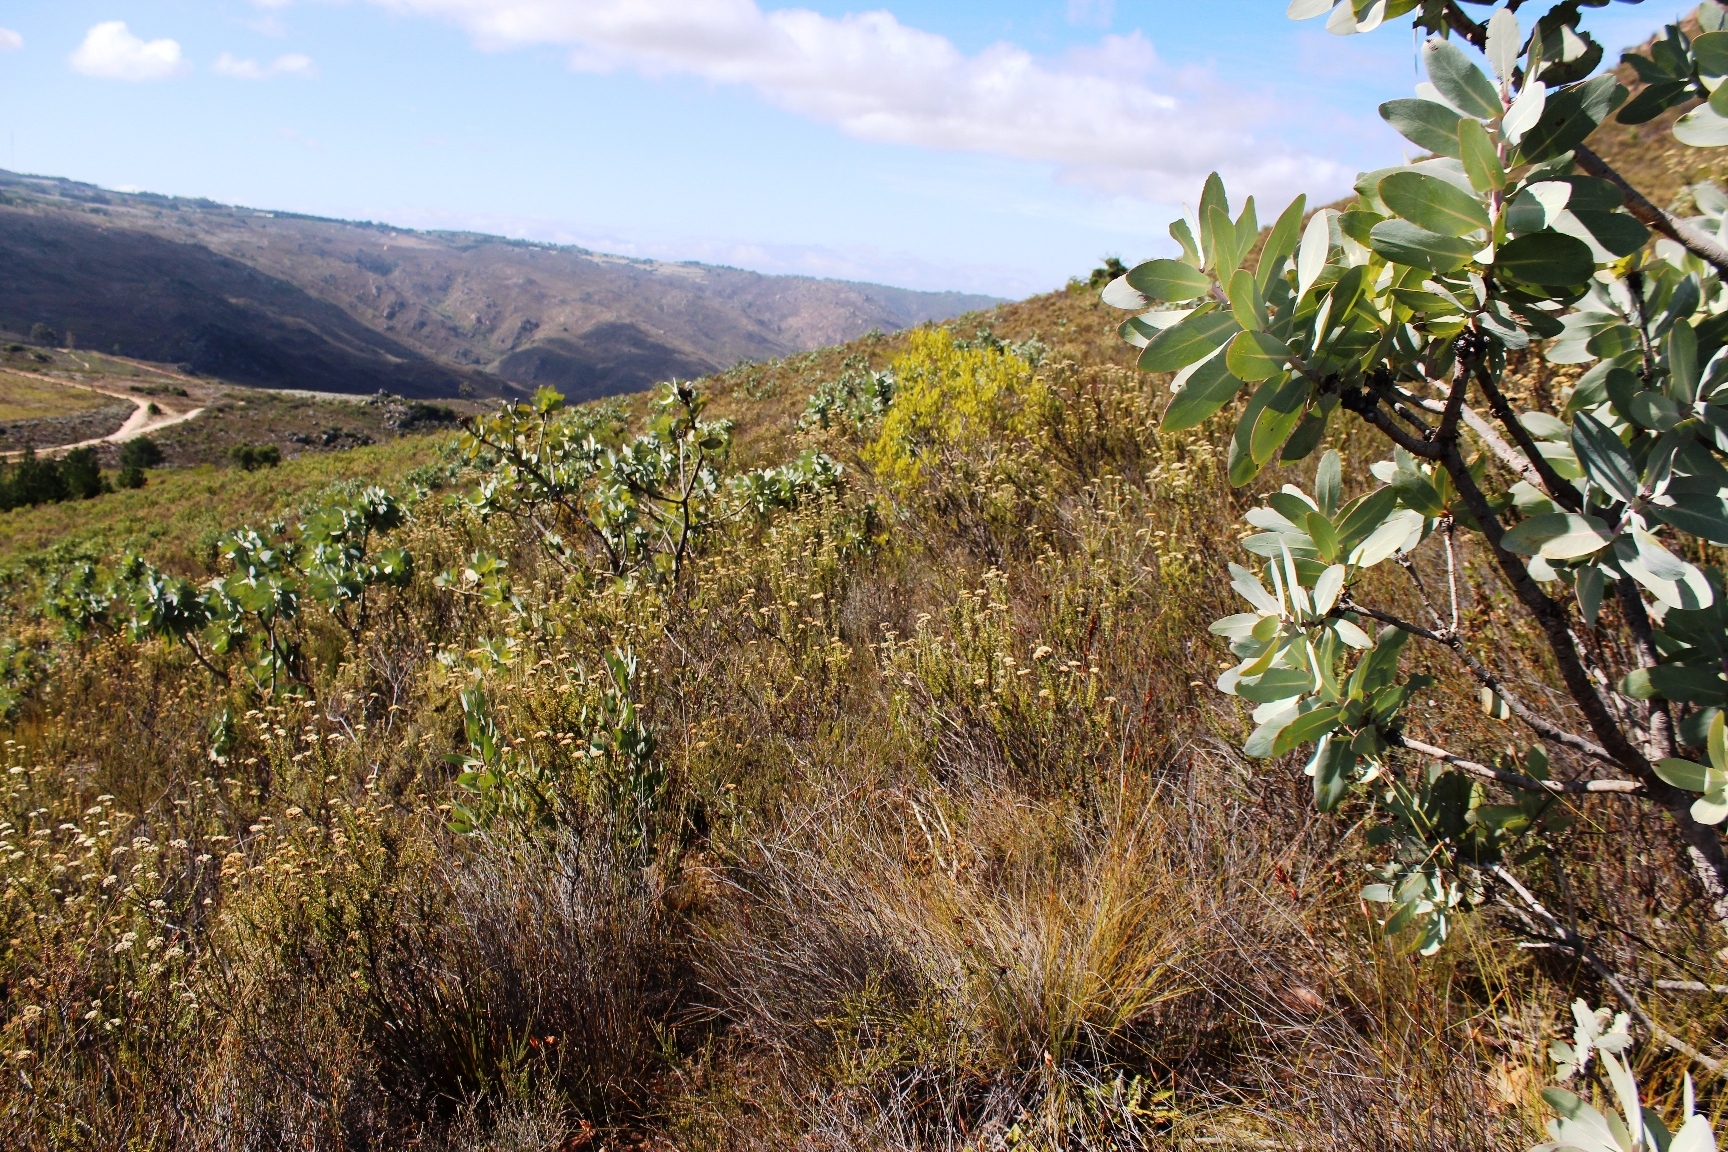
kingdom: Plantae
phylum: Tracheophyta
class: Magnoliopsida
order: Proteales
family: Proteaceae
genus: Protea
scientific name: Protea nitida
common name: Tree protea
